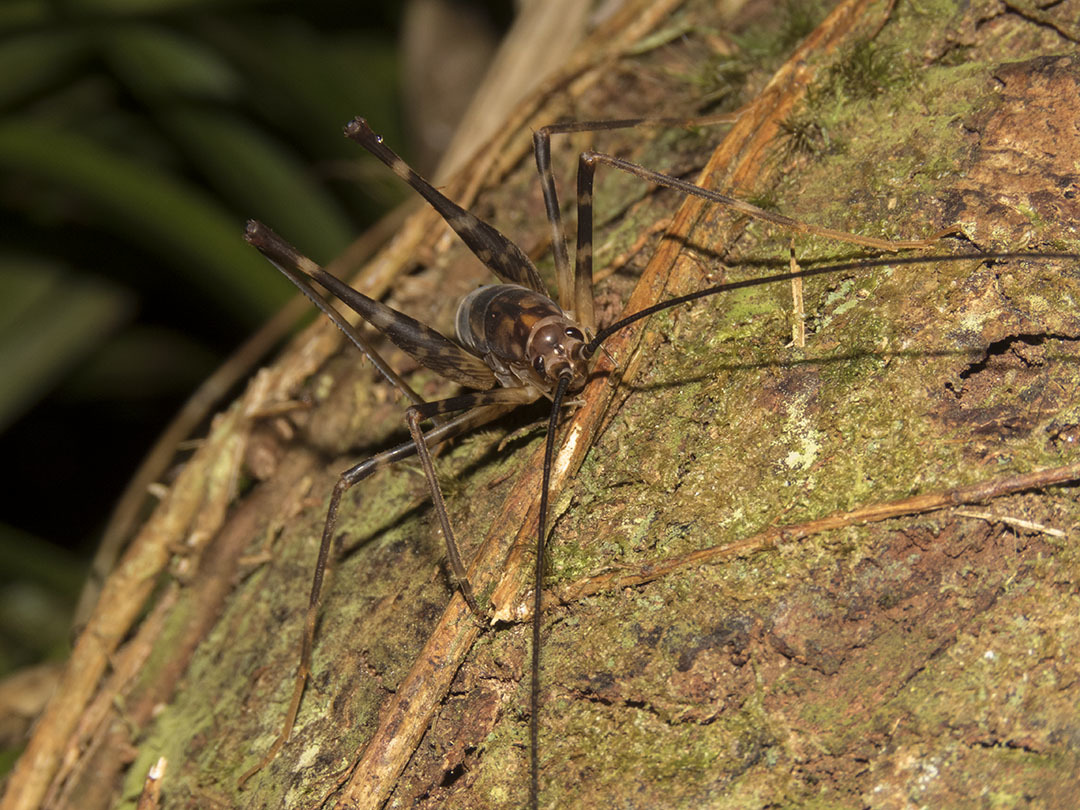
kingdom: Animalia
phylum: Arthropoda
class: Insecta
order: Orthoptera
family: Rhaphidophoridae
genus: Miotopus
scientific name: Miotopus richardsae
